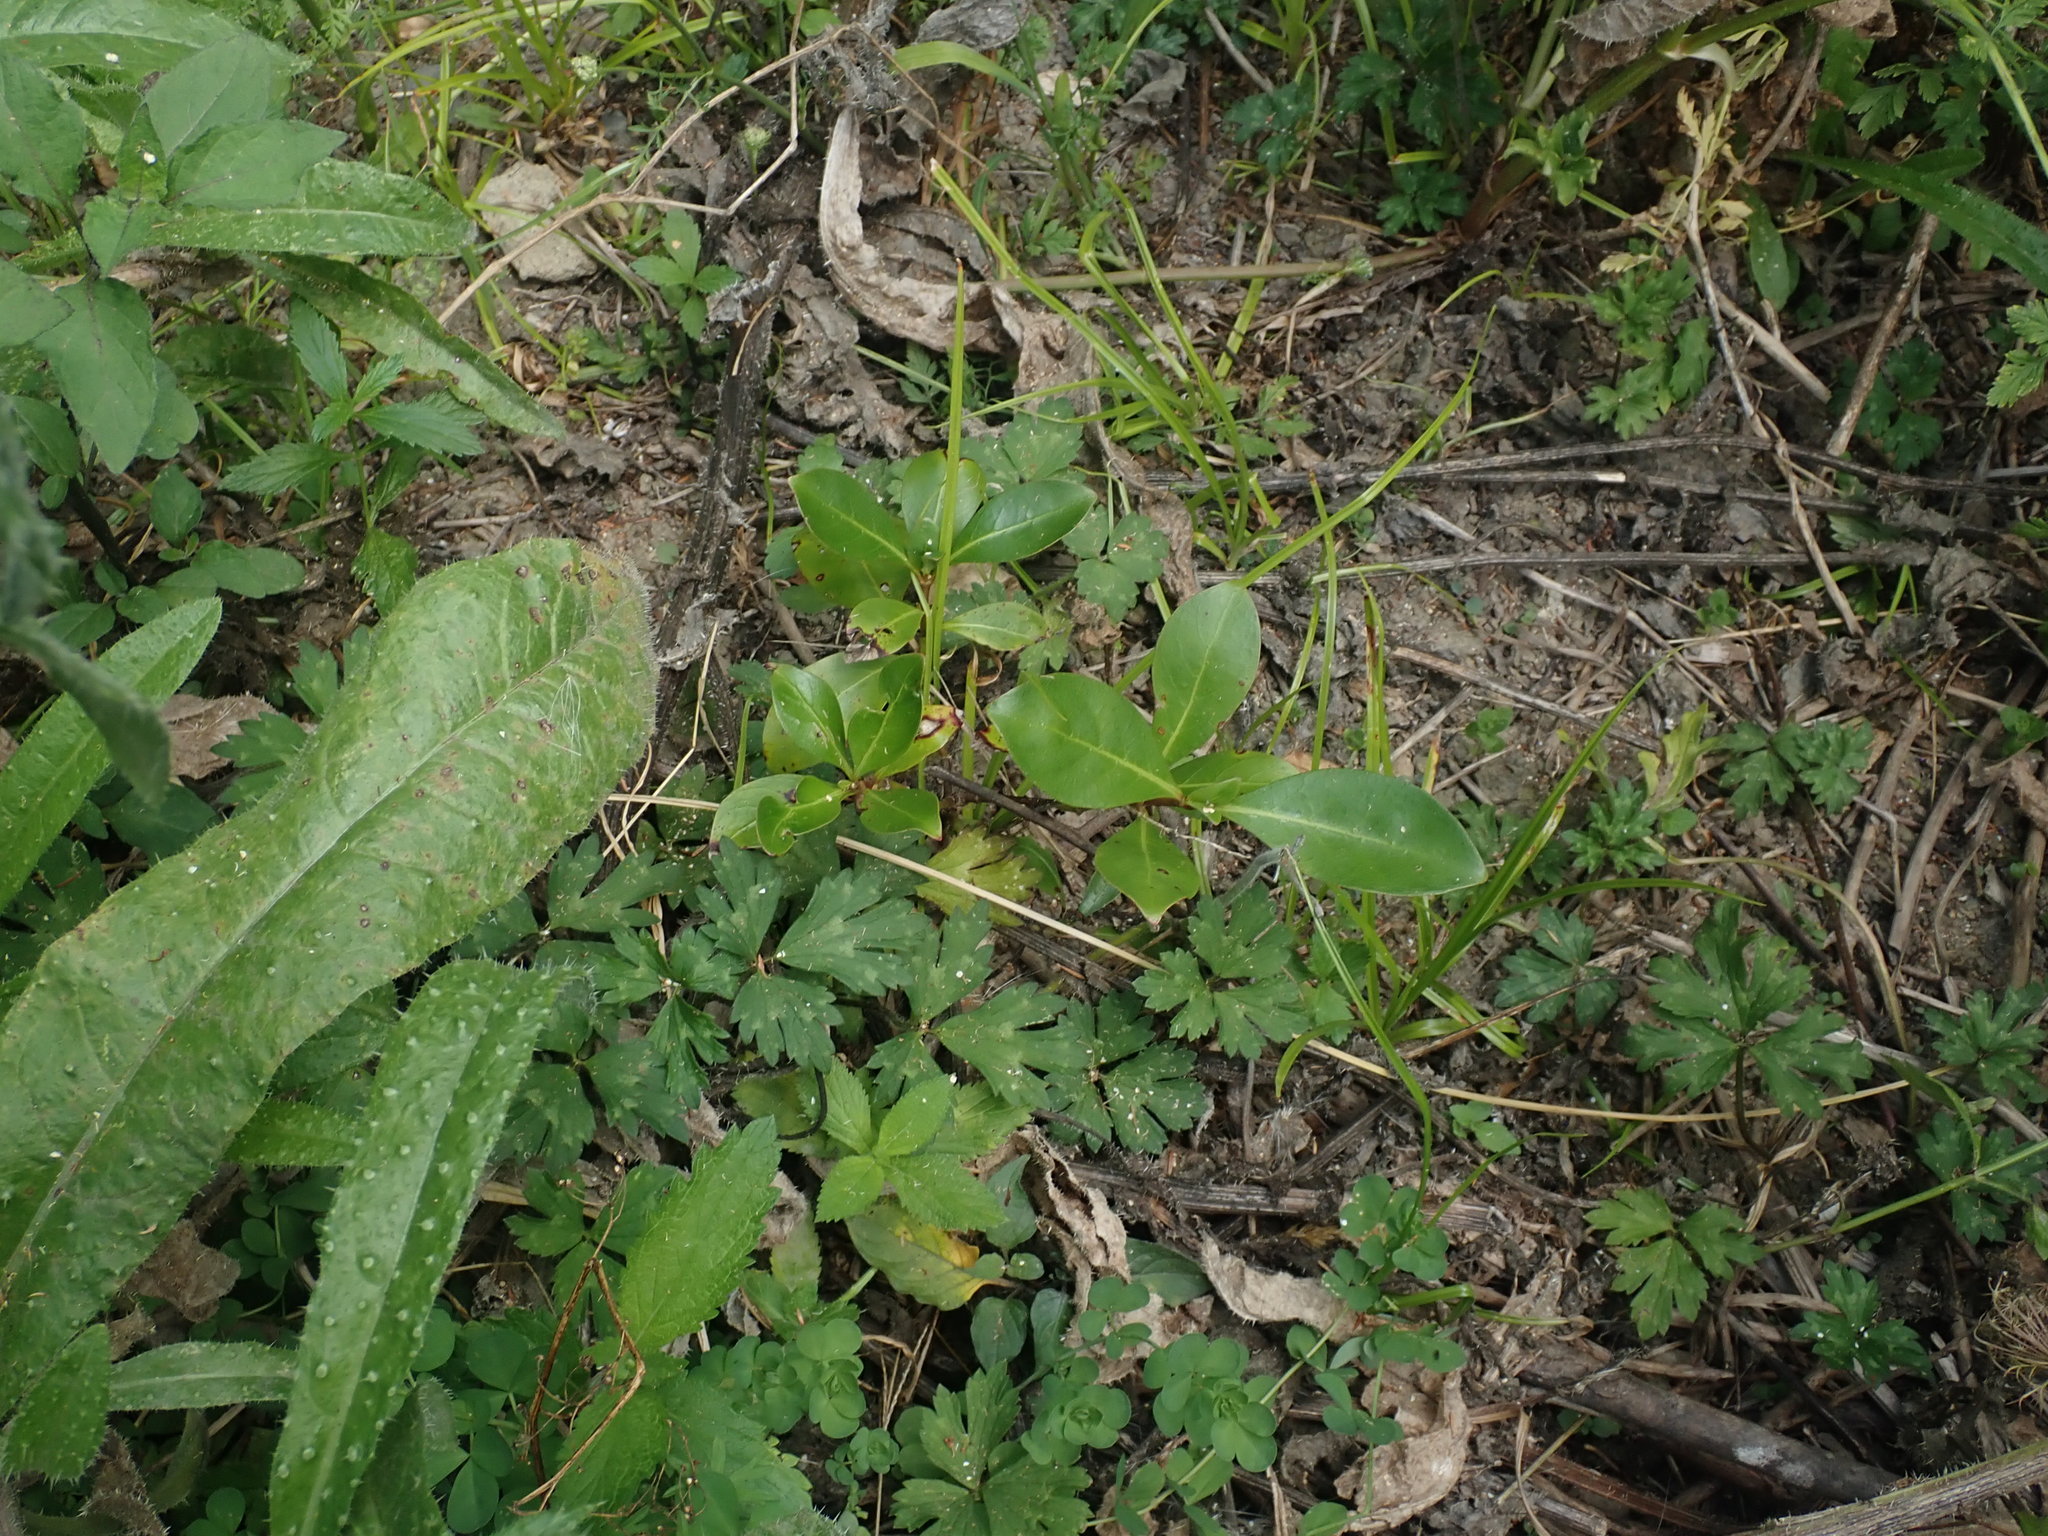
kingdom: Plantae
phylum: Tracheophyta
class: Magnoliopsida
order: Gentianales
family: Rubiaceae
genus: Coprosma
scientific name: Coprosma robusta
